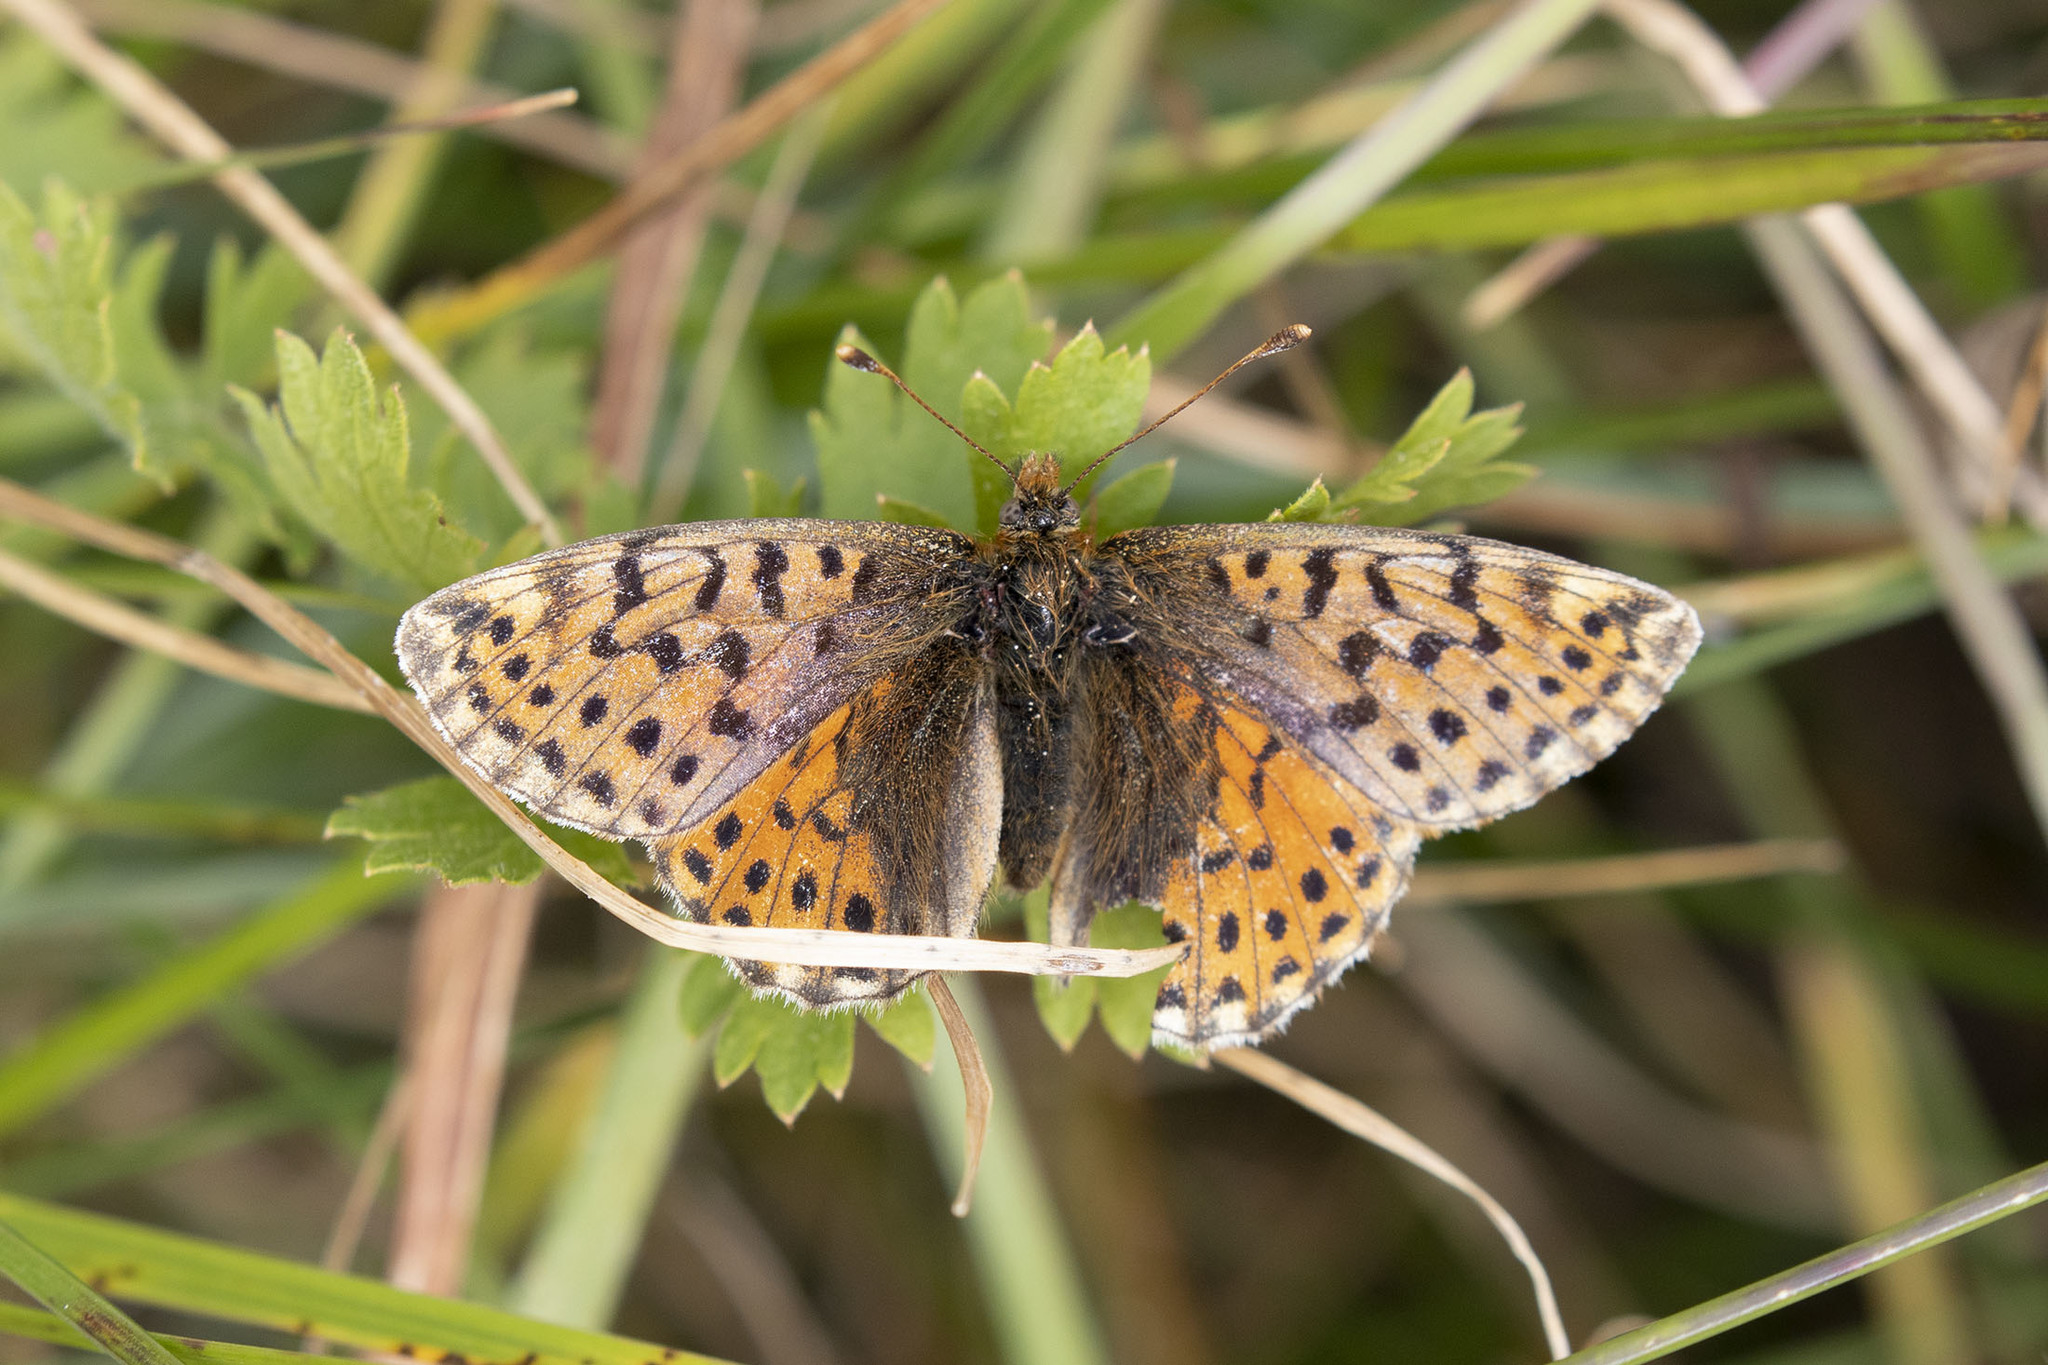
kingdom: Animalia
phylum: Arthropoda
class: Insecta
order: Lepidoptera
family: Nymphalidae
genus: Boloria
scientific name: Boloria caucasica
